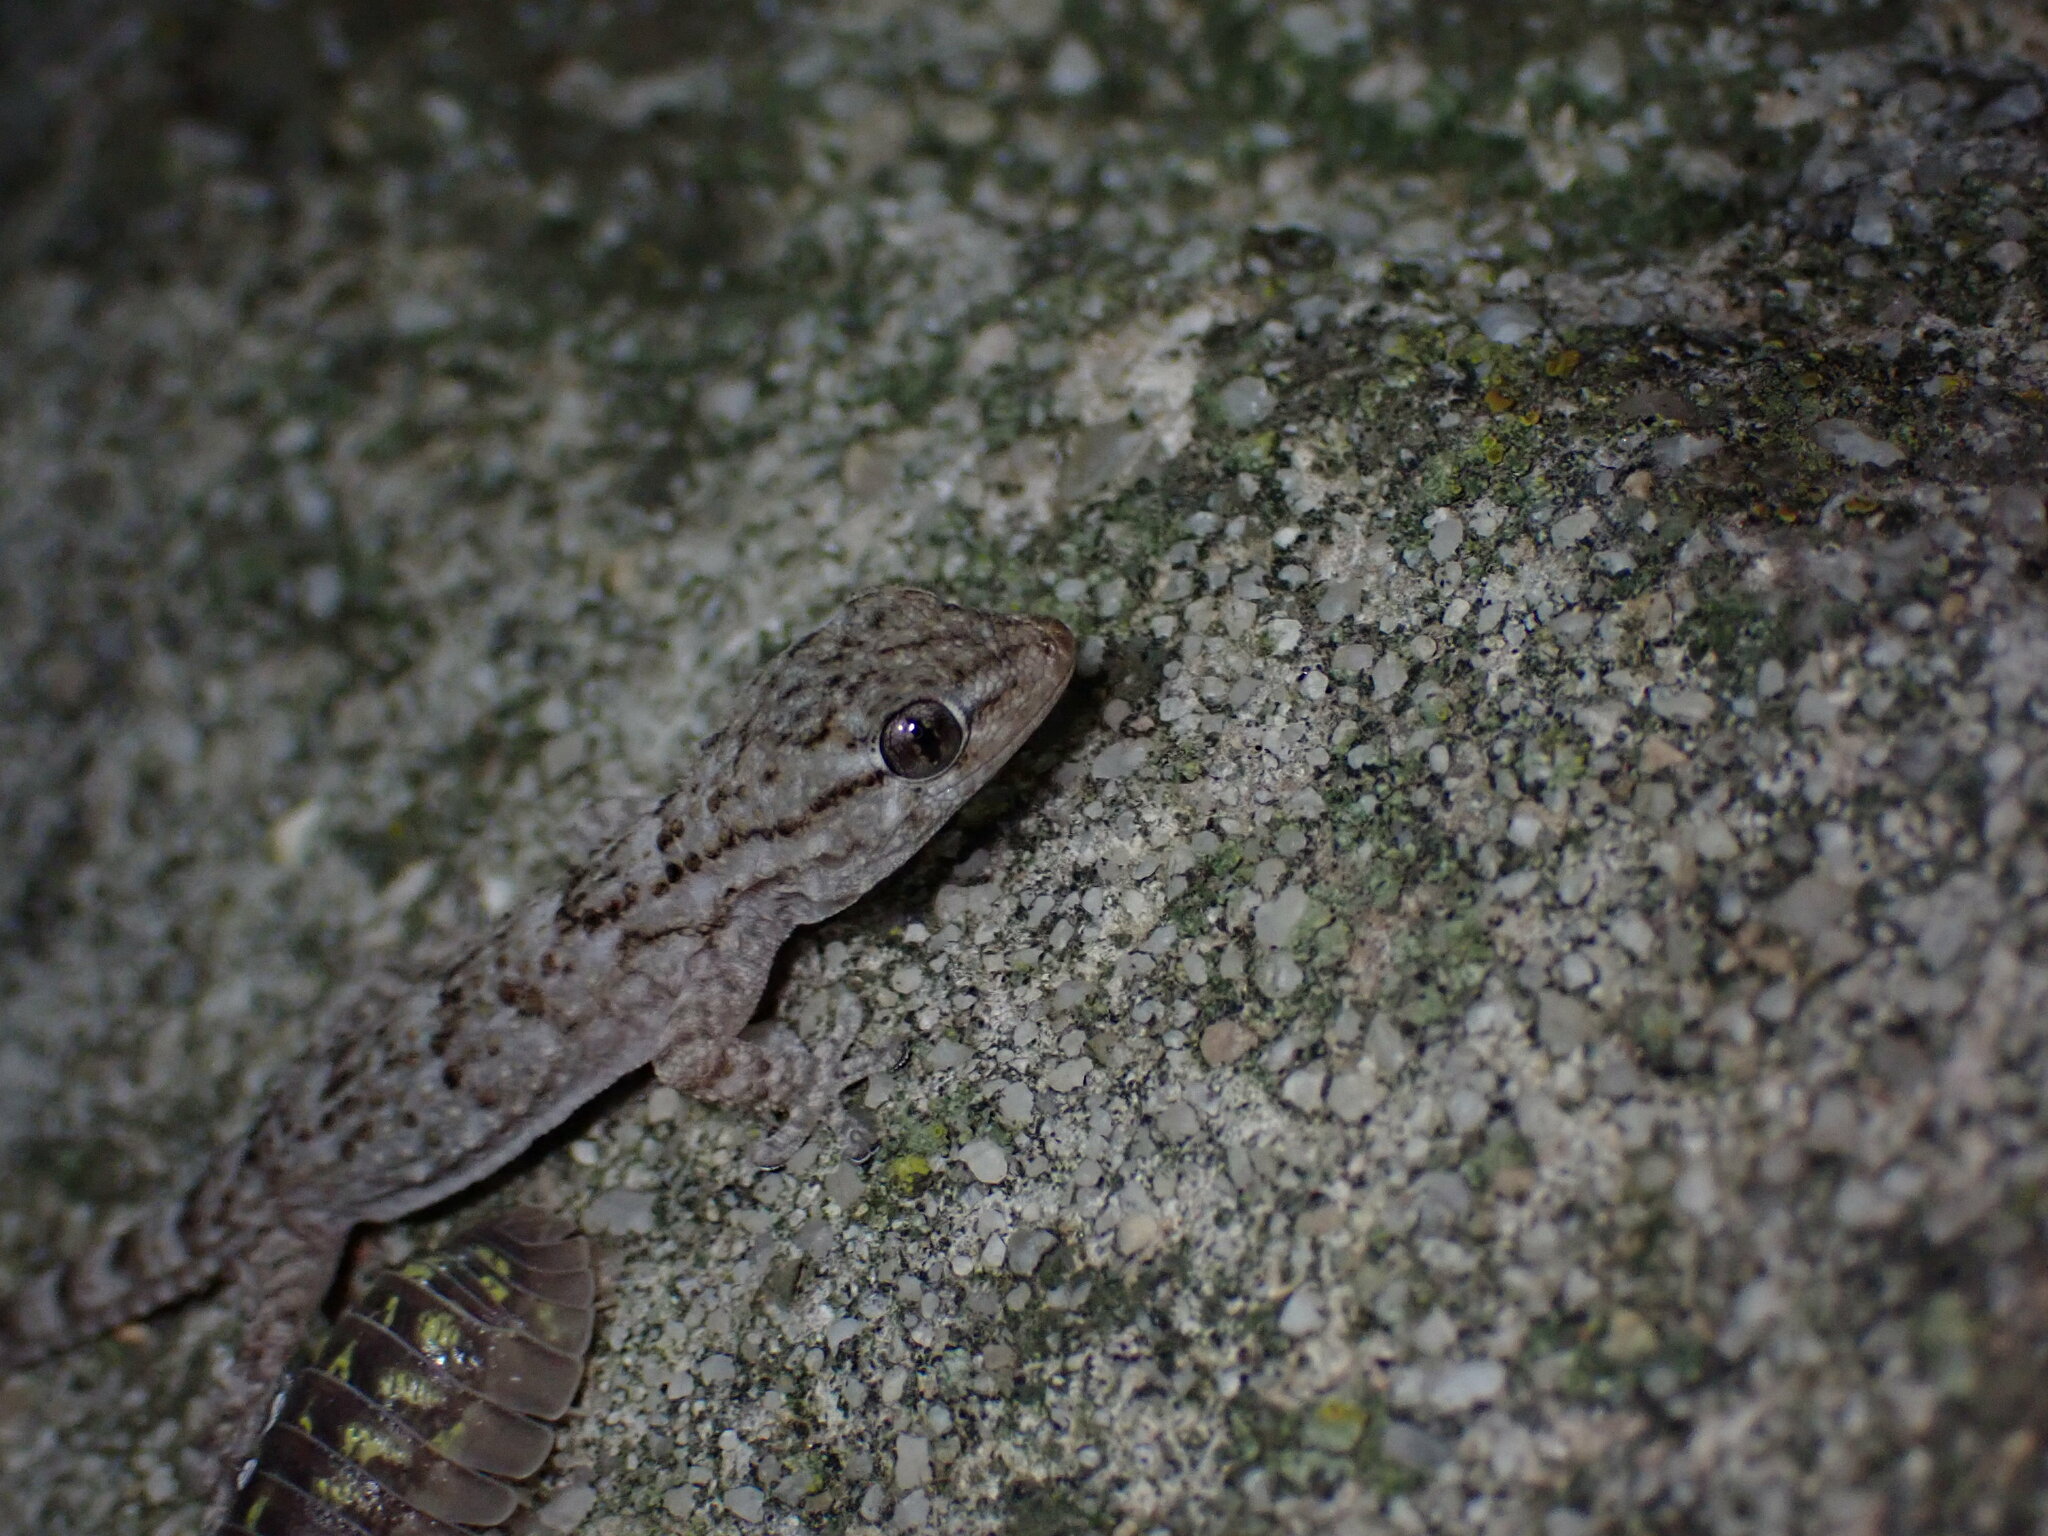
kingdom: Animalia
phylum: Chordata
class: Squamata
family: Phyllodactylidae
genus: Tarentola
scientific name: Tarentola mauritanica
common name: Moorish gecko
